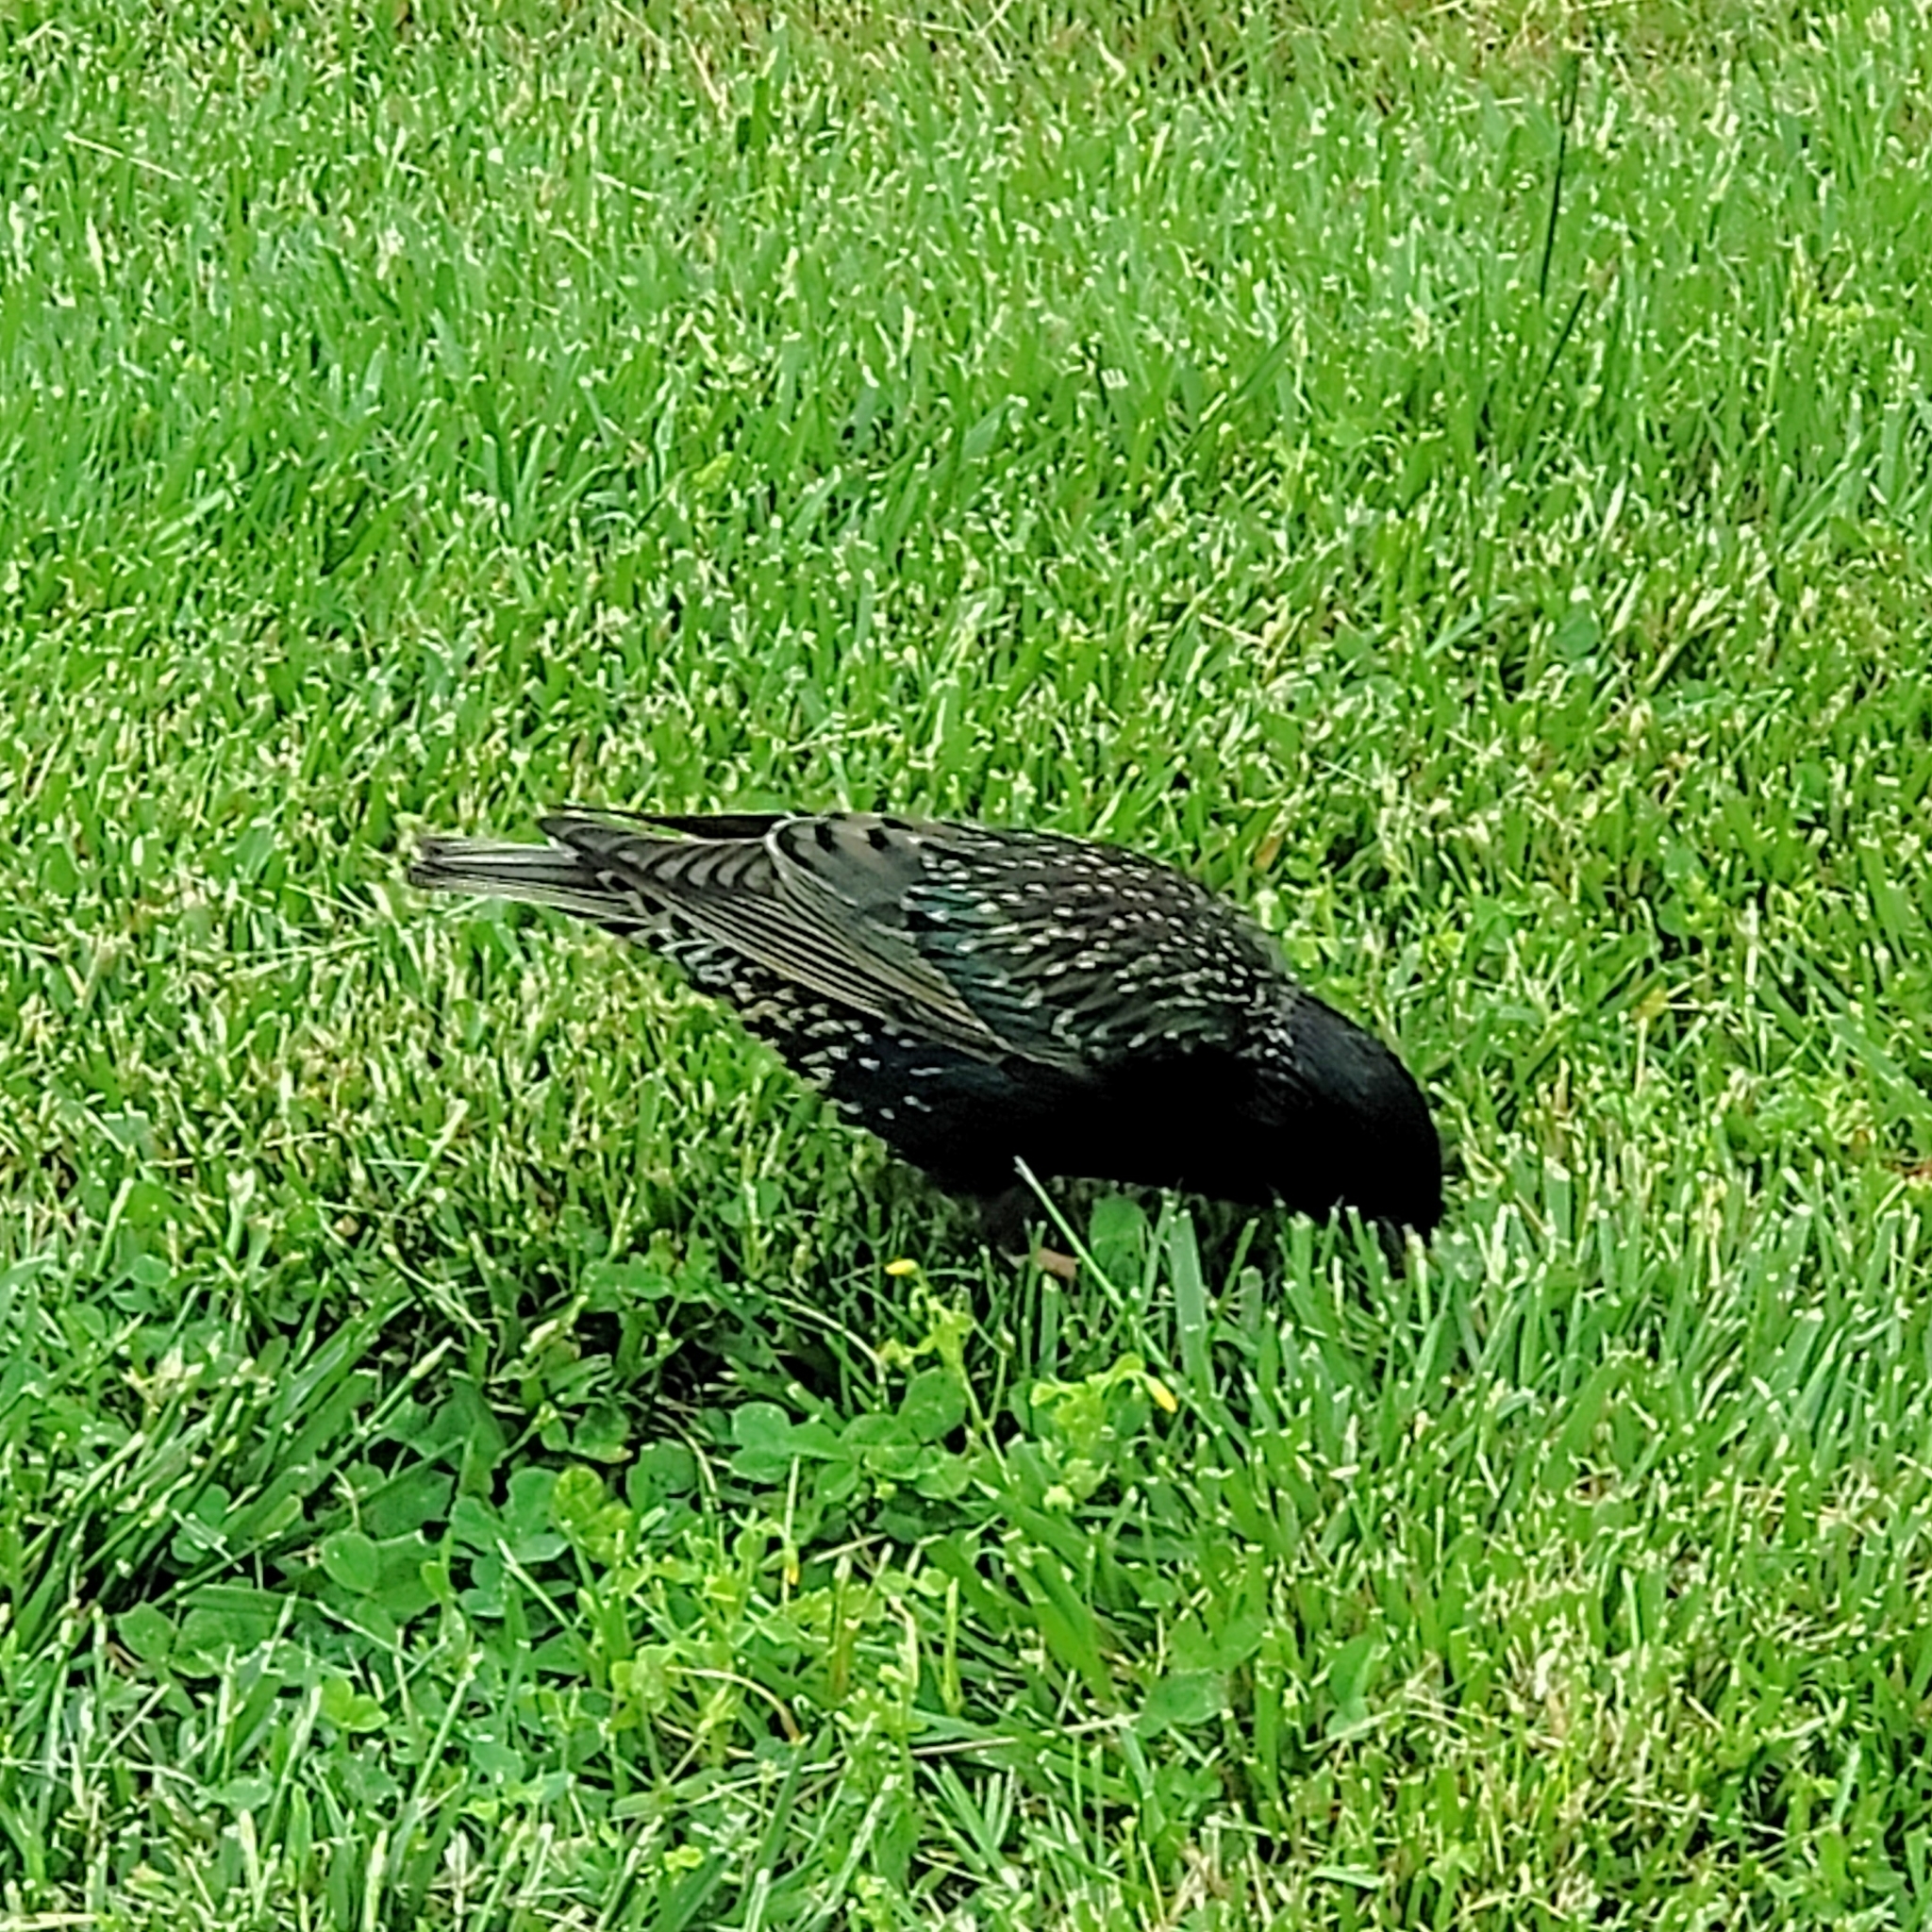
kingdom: Animalia
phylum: Chordata
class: Aves
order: Passeriformes
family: Sturnidae
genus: Sturnus
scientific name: Sturnus vulgaris
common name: Common starling
